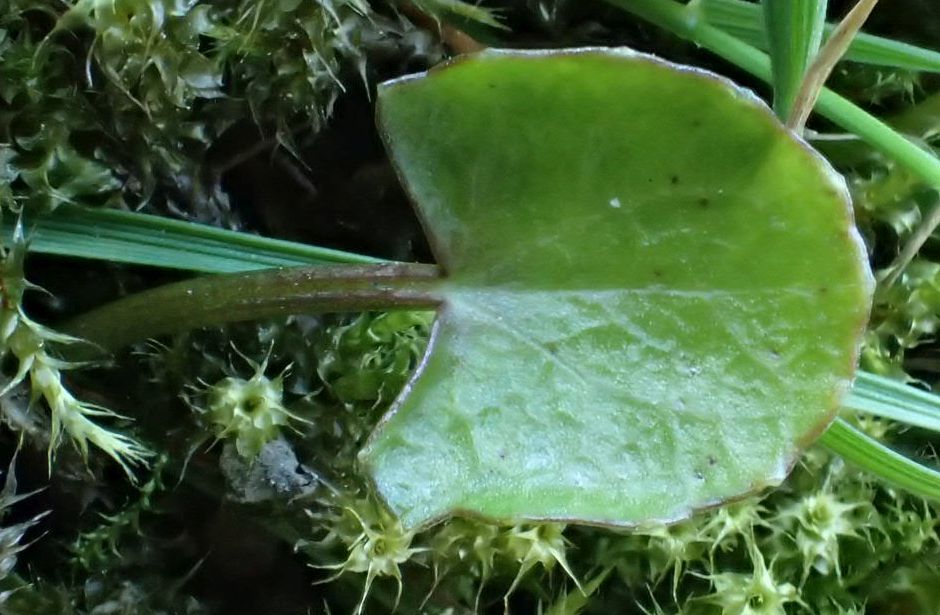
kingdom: Plantae
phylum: Tracheophyta
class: Magnoliopsida
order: Apiales
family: Apiaceae
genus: Centella
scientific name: Centella uniflora
